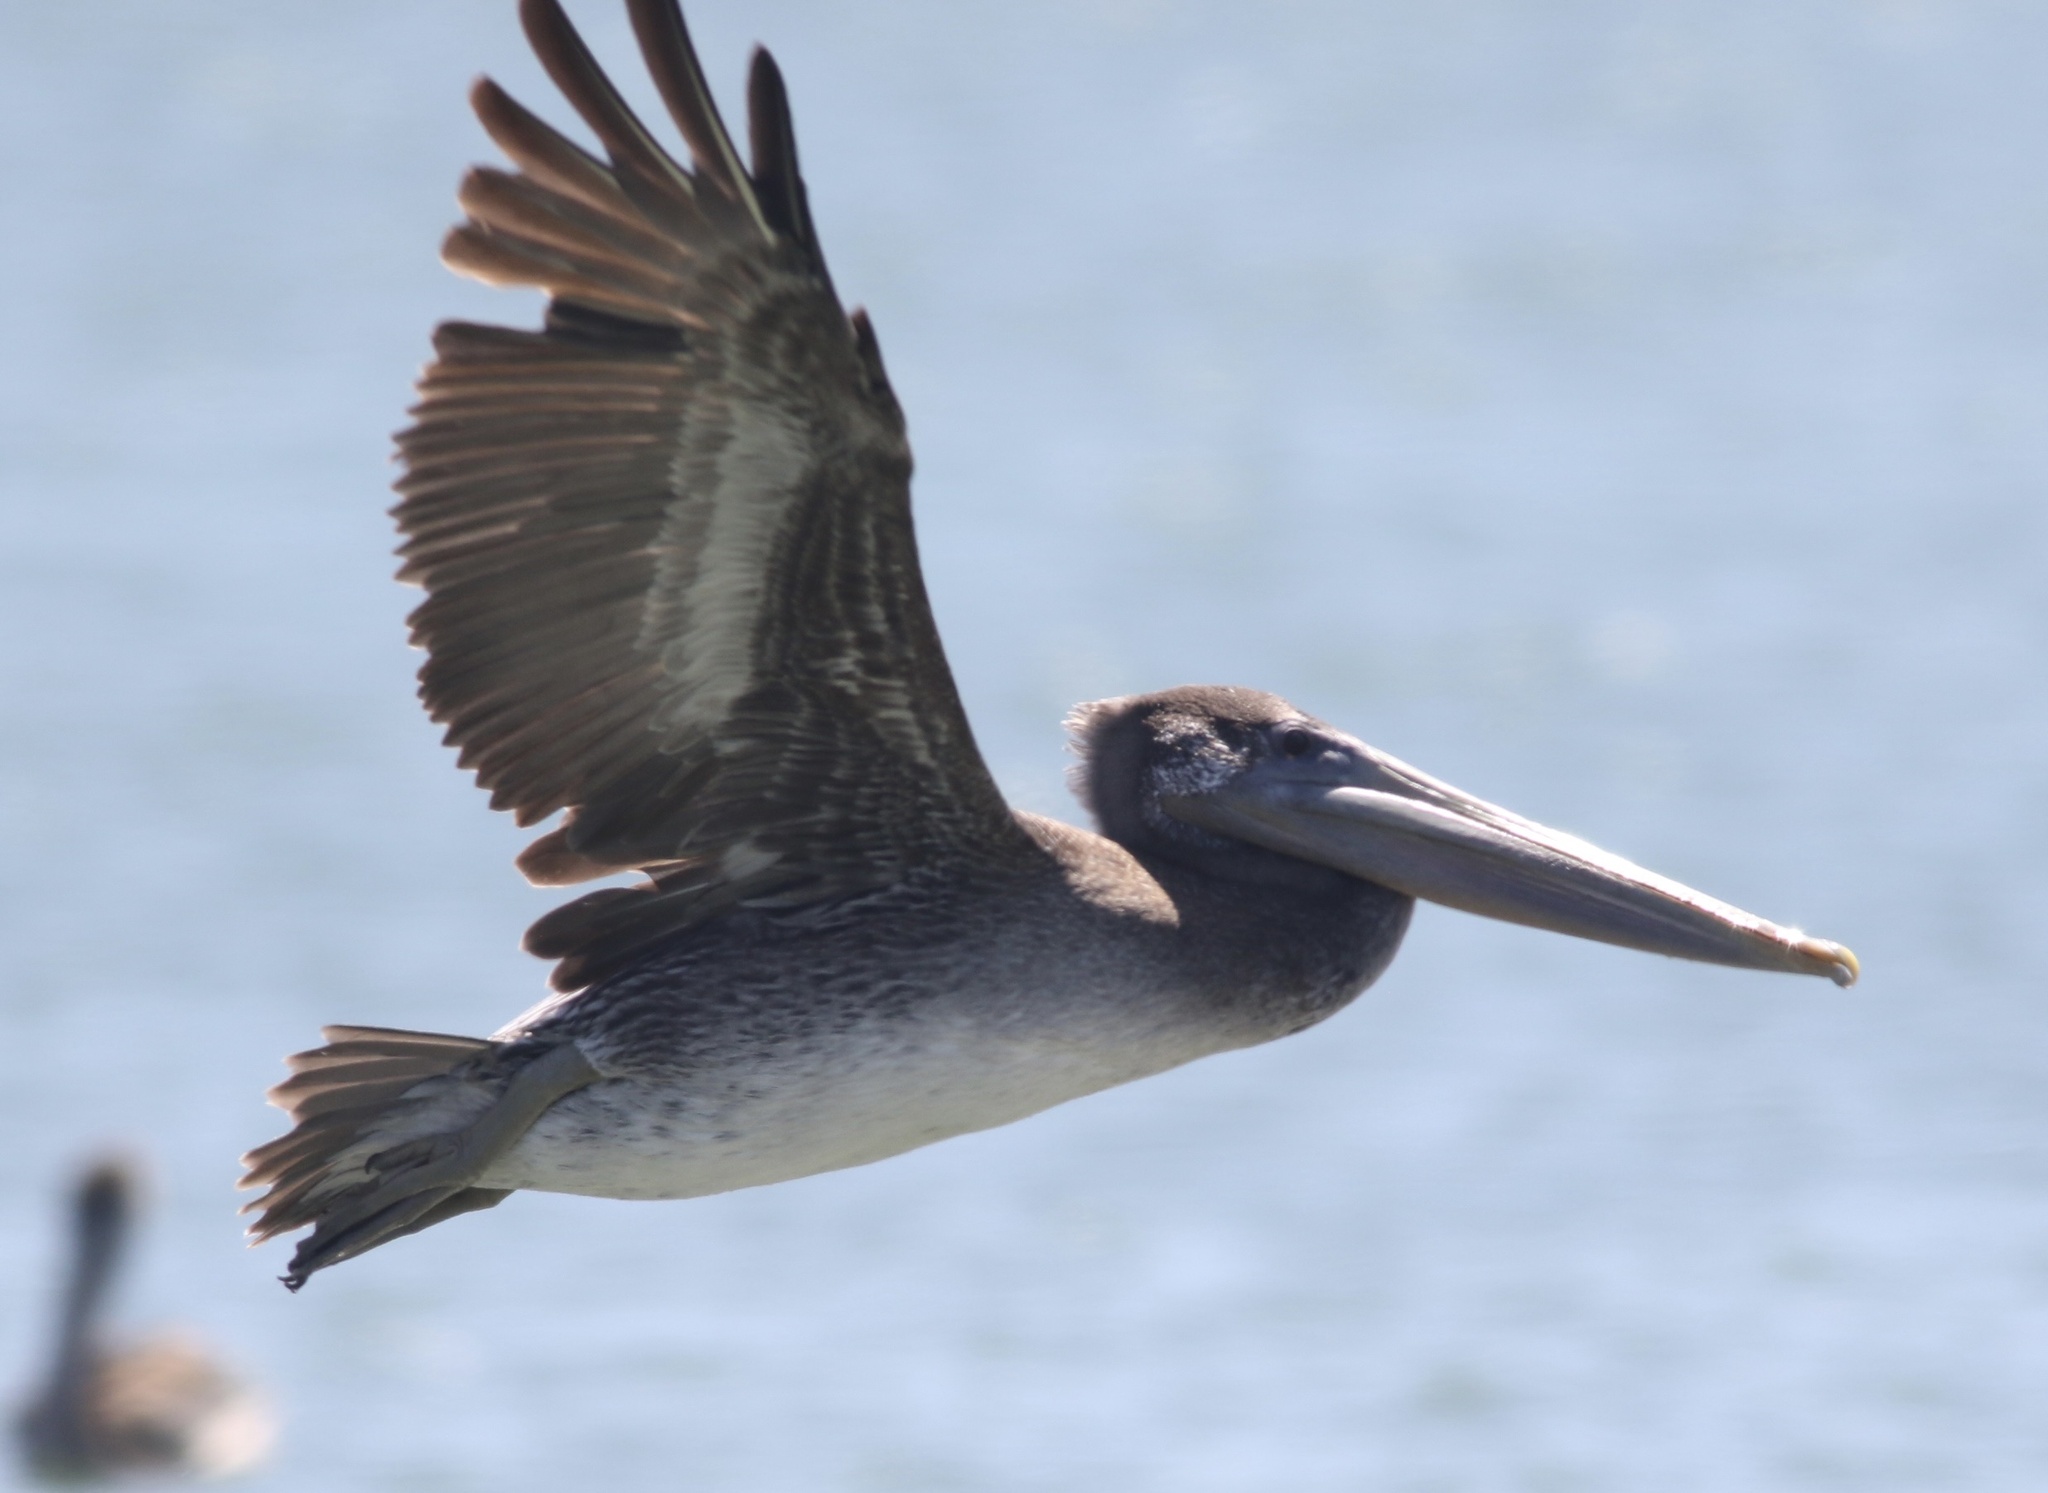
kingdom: Animalia
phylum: Chordata
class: Aves
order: Pelecaniformes
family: Pelecanidae
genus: Pelecanus
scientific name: Pelecanus occidentalis
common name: Brown pelican
